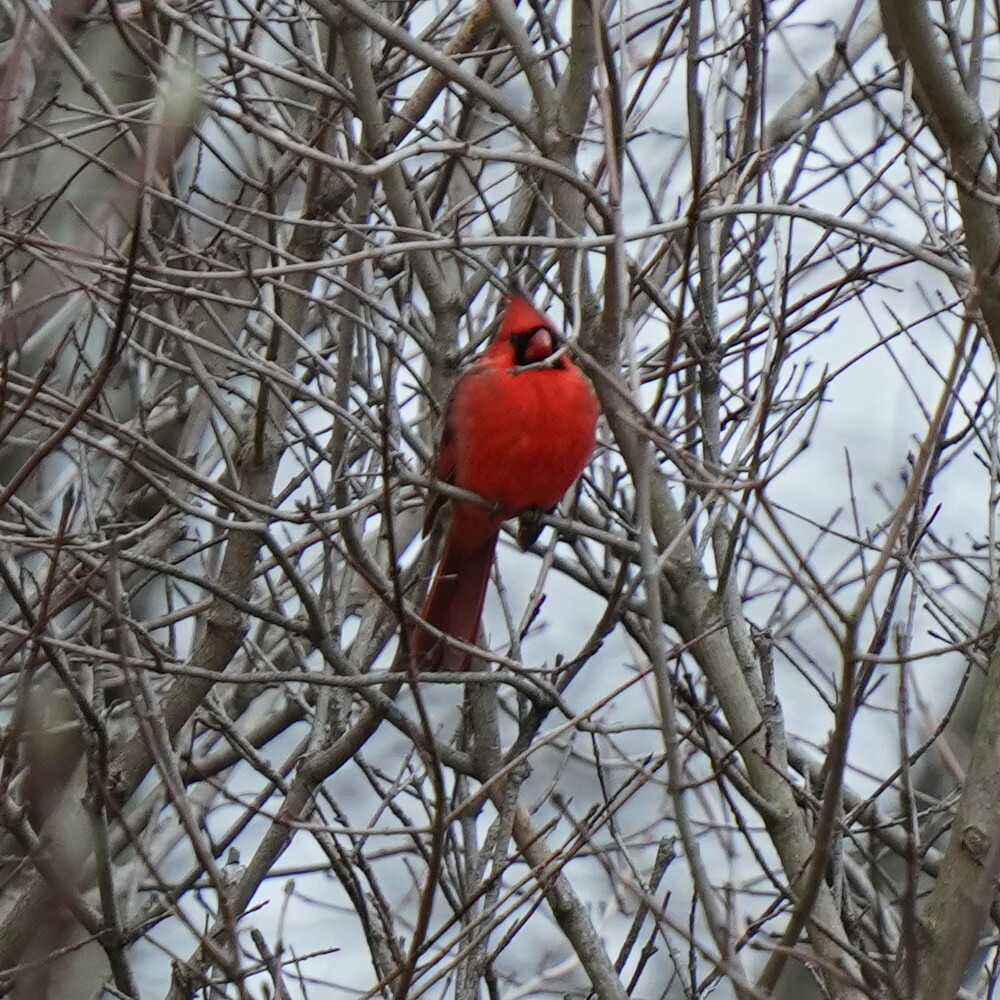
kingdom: Animalia
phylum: Chordata
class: Aves
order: Passeriformes
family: Cardinalidae
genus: Cardinalis
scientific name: Cardinalis cardinalis
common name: Northern cardinal
